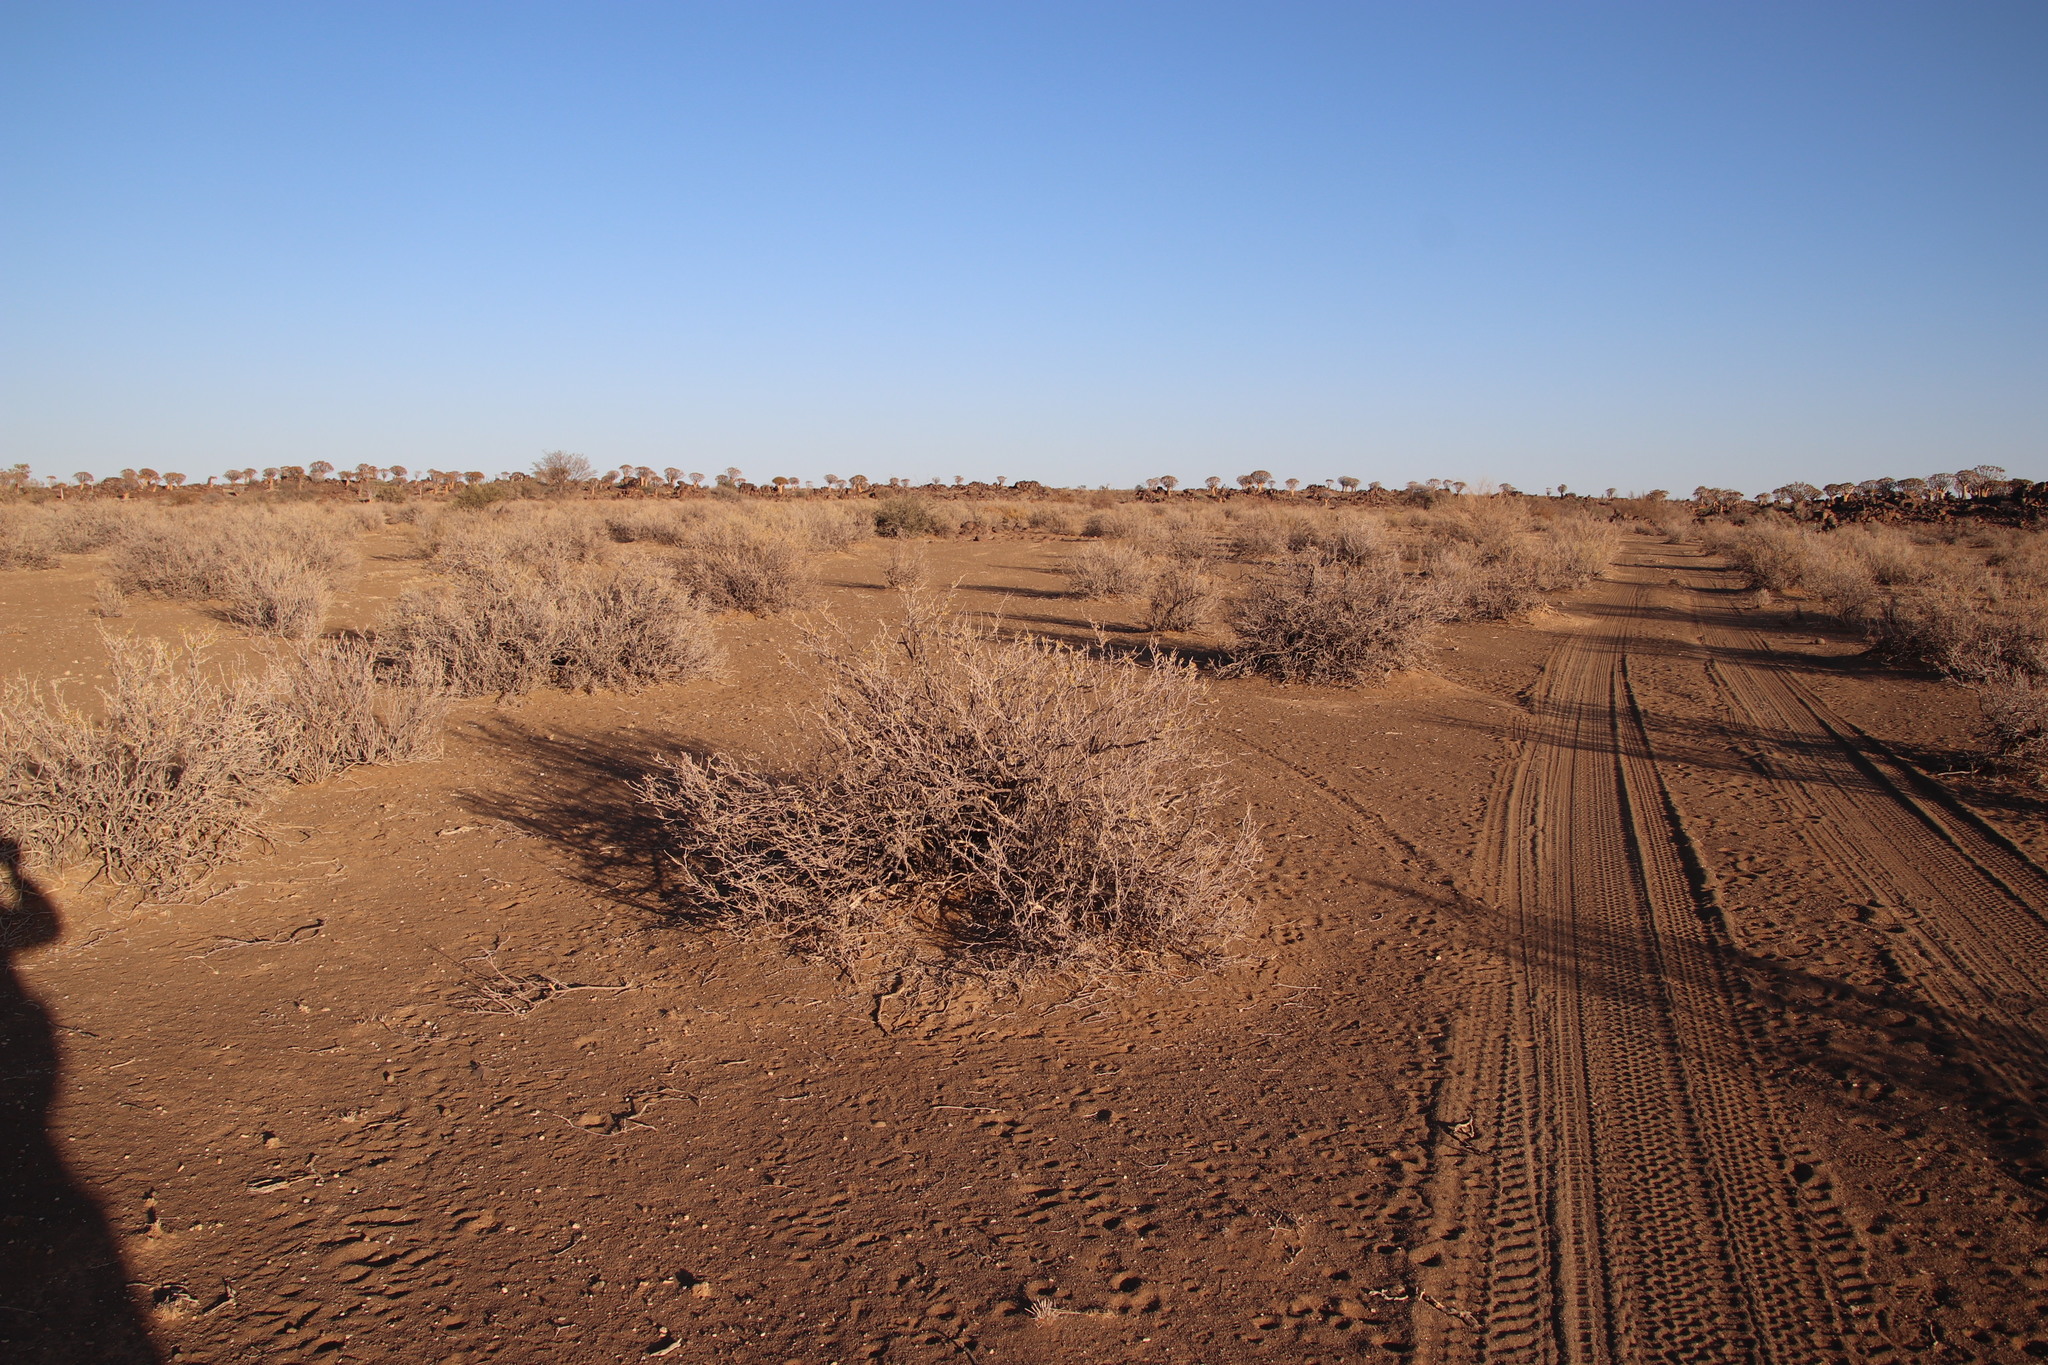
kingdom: Plantae
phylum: Tracheophyta
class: Magnoliopsida
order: Zygophyllales
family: Zygophyllaceae
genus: Tetraena
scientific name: Tetraena rigida
